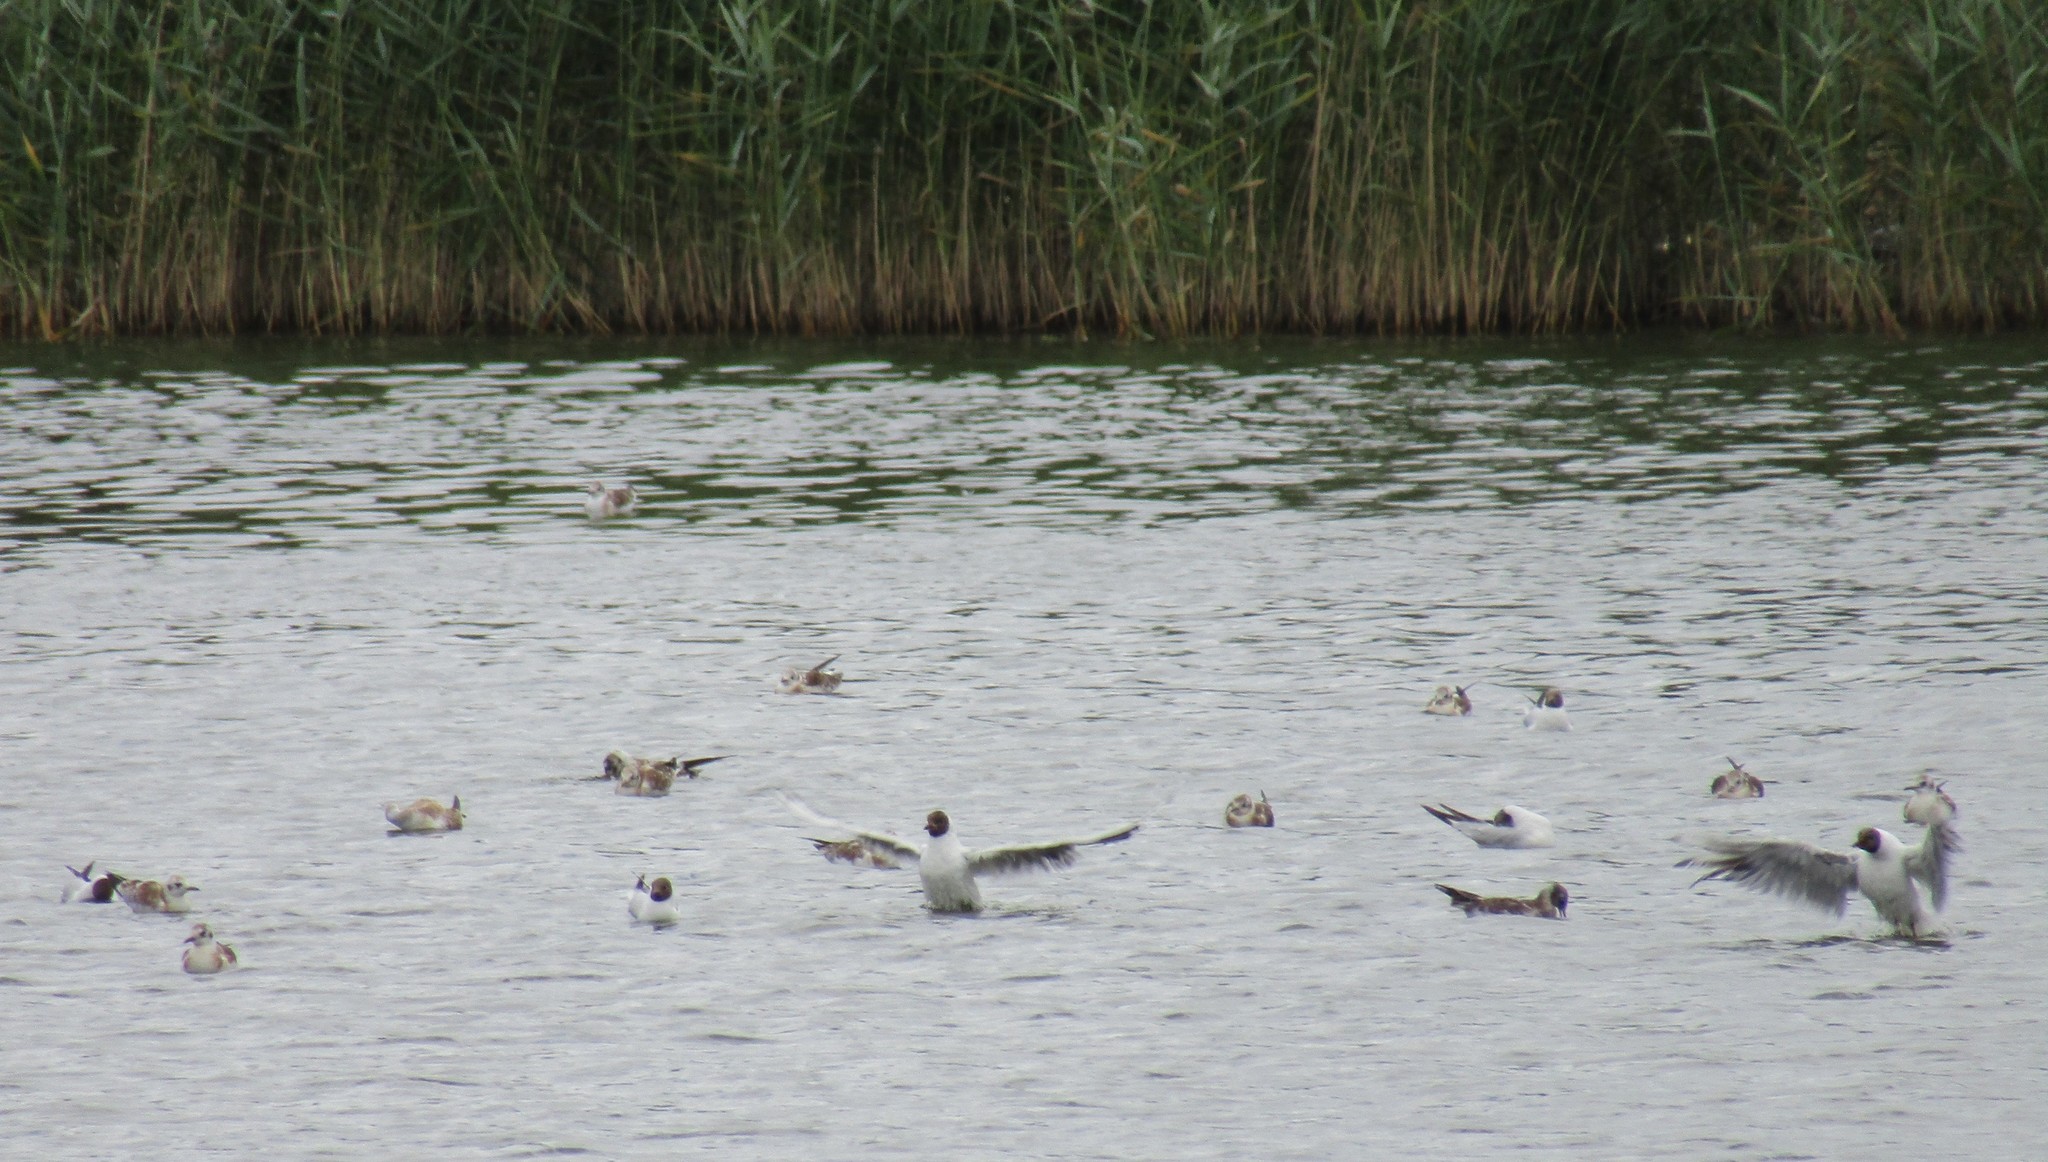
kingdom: Animalia
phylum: Chordata
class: Aves
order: Charadriiformes
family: Laridae
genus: Chroicocephalus
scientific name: Chroicocephalus ridibundus
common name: Black-headed gull
